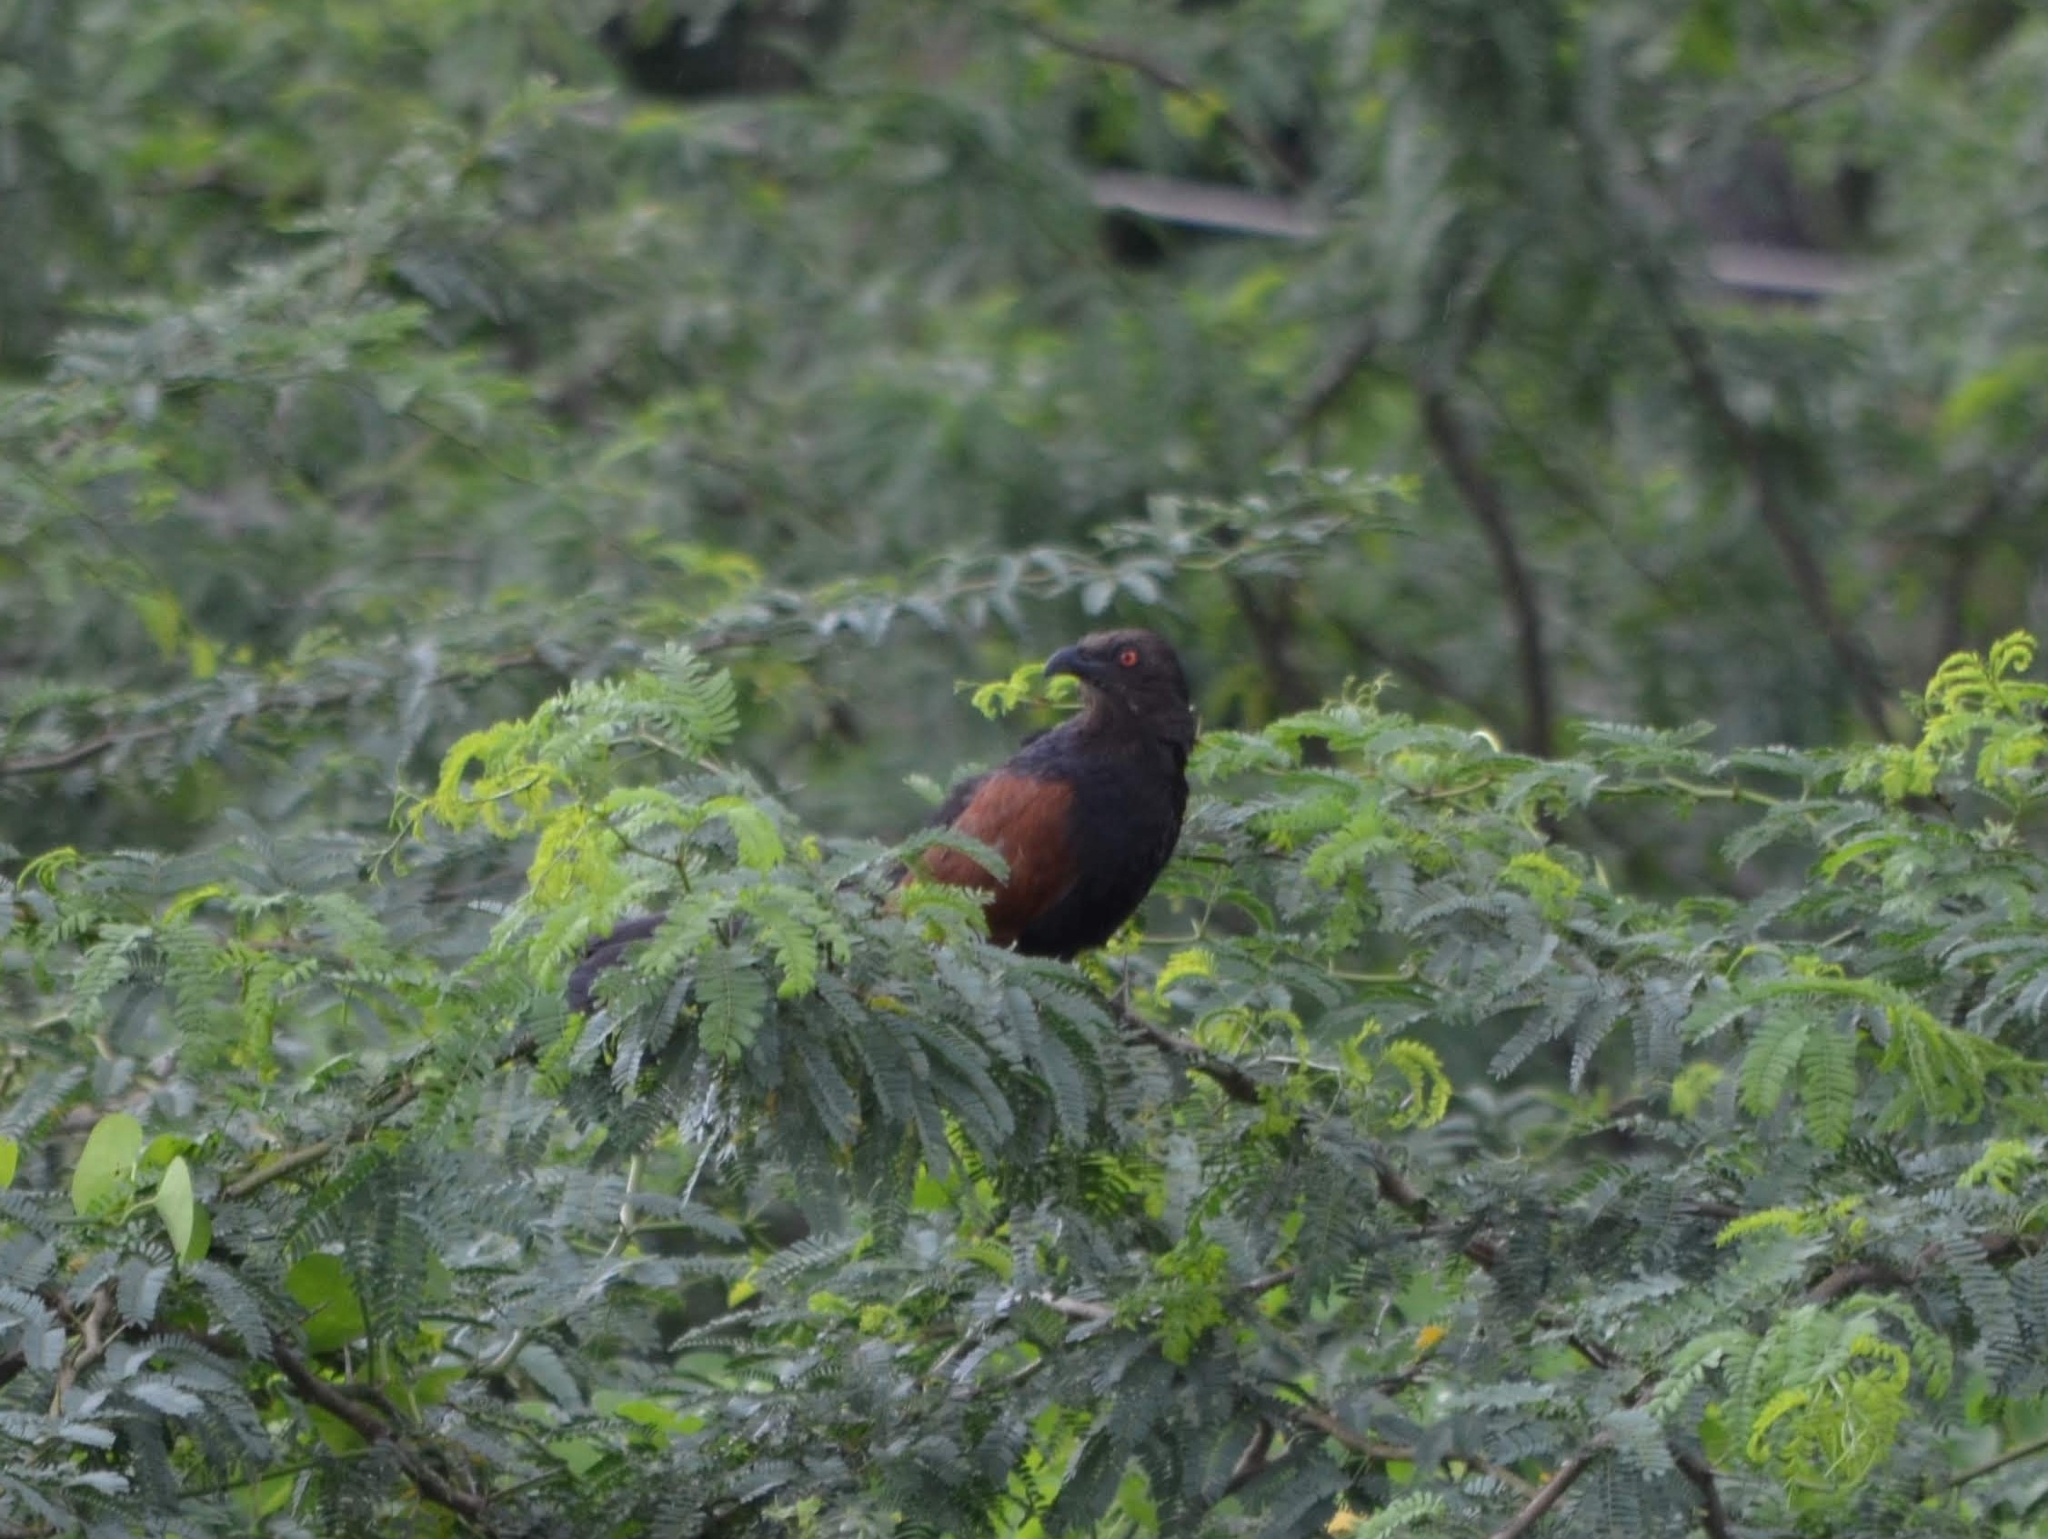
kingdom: Animalia
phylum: Chordata
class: Aves
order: Cuculiformes
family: Cuculidae
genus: Centropus
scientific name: Centropus sinensis
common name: Greater coucal
